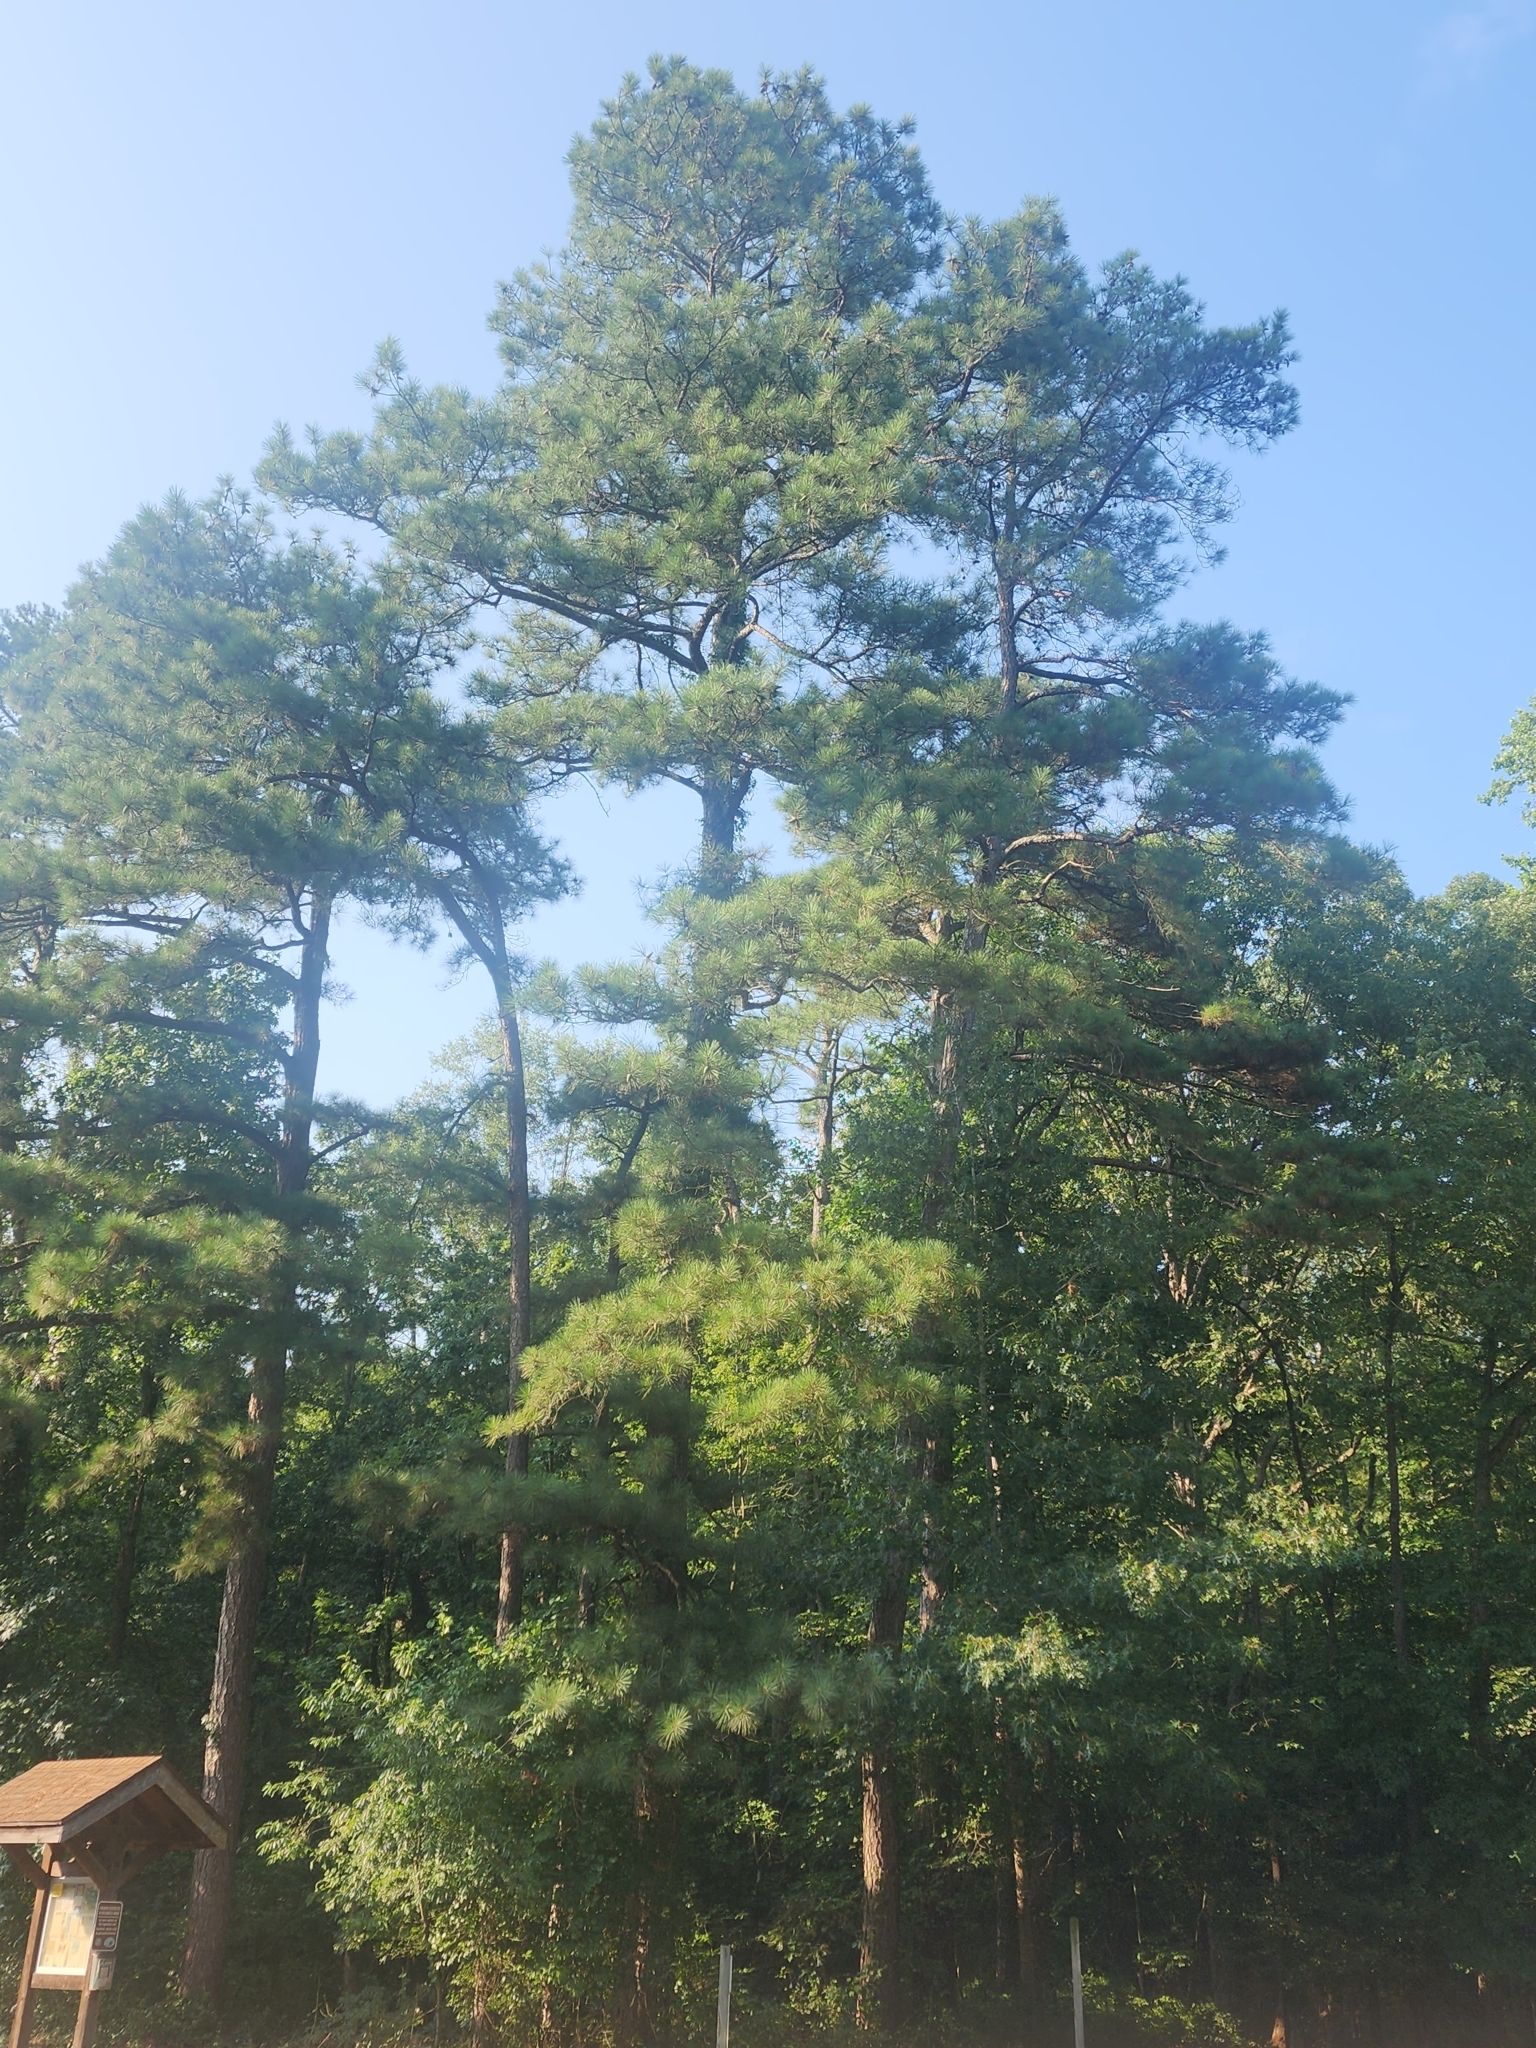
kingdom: Plantae
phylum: Tracheophyta
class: Pinopsida
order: Pinales
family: Pinaceae
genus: Pinus
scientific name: Pinus taeda
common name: Loblolly pine
